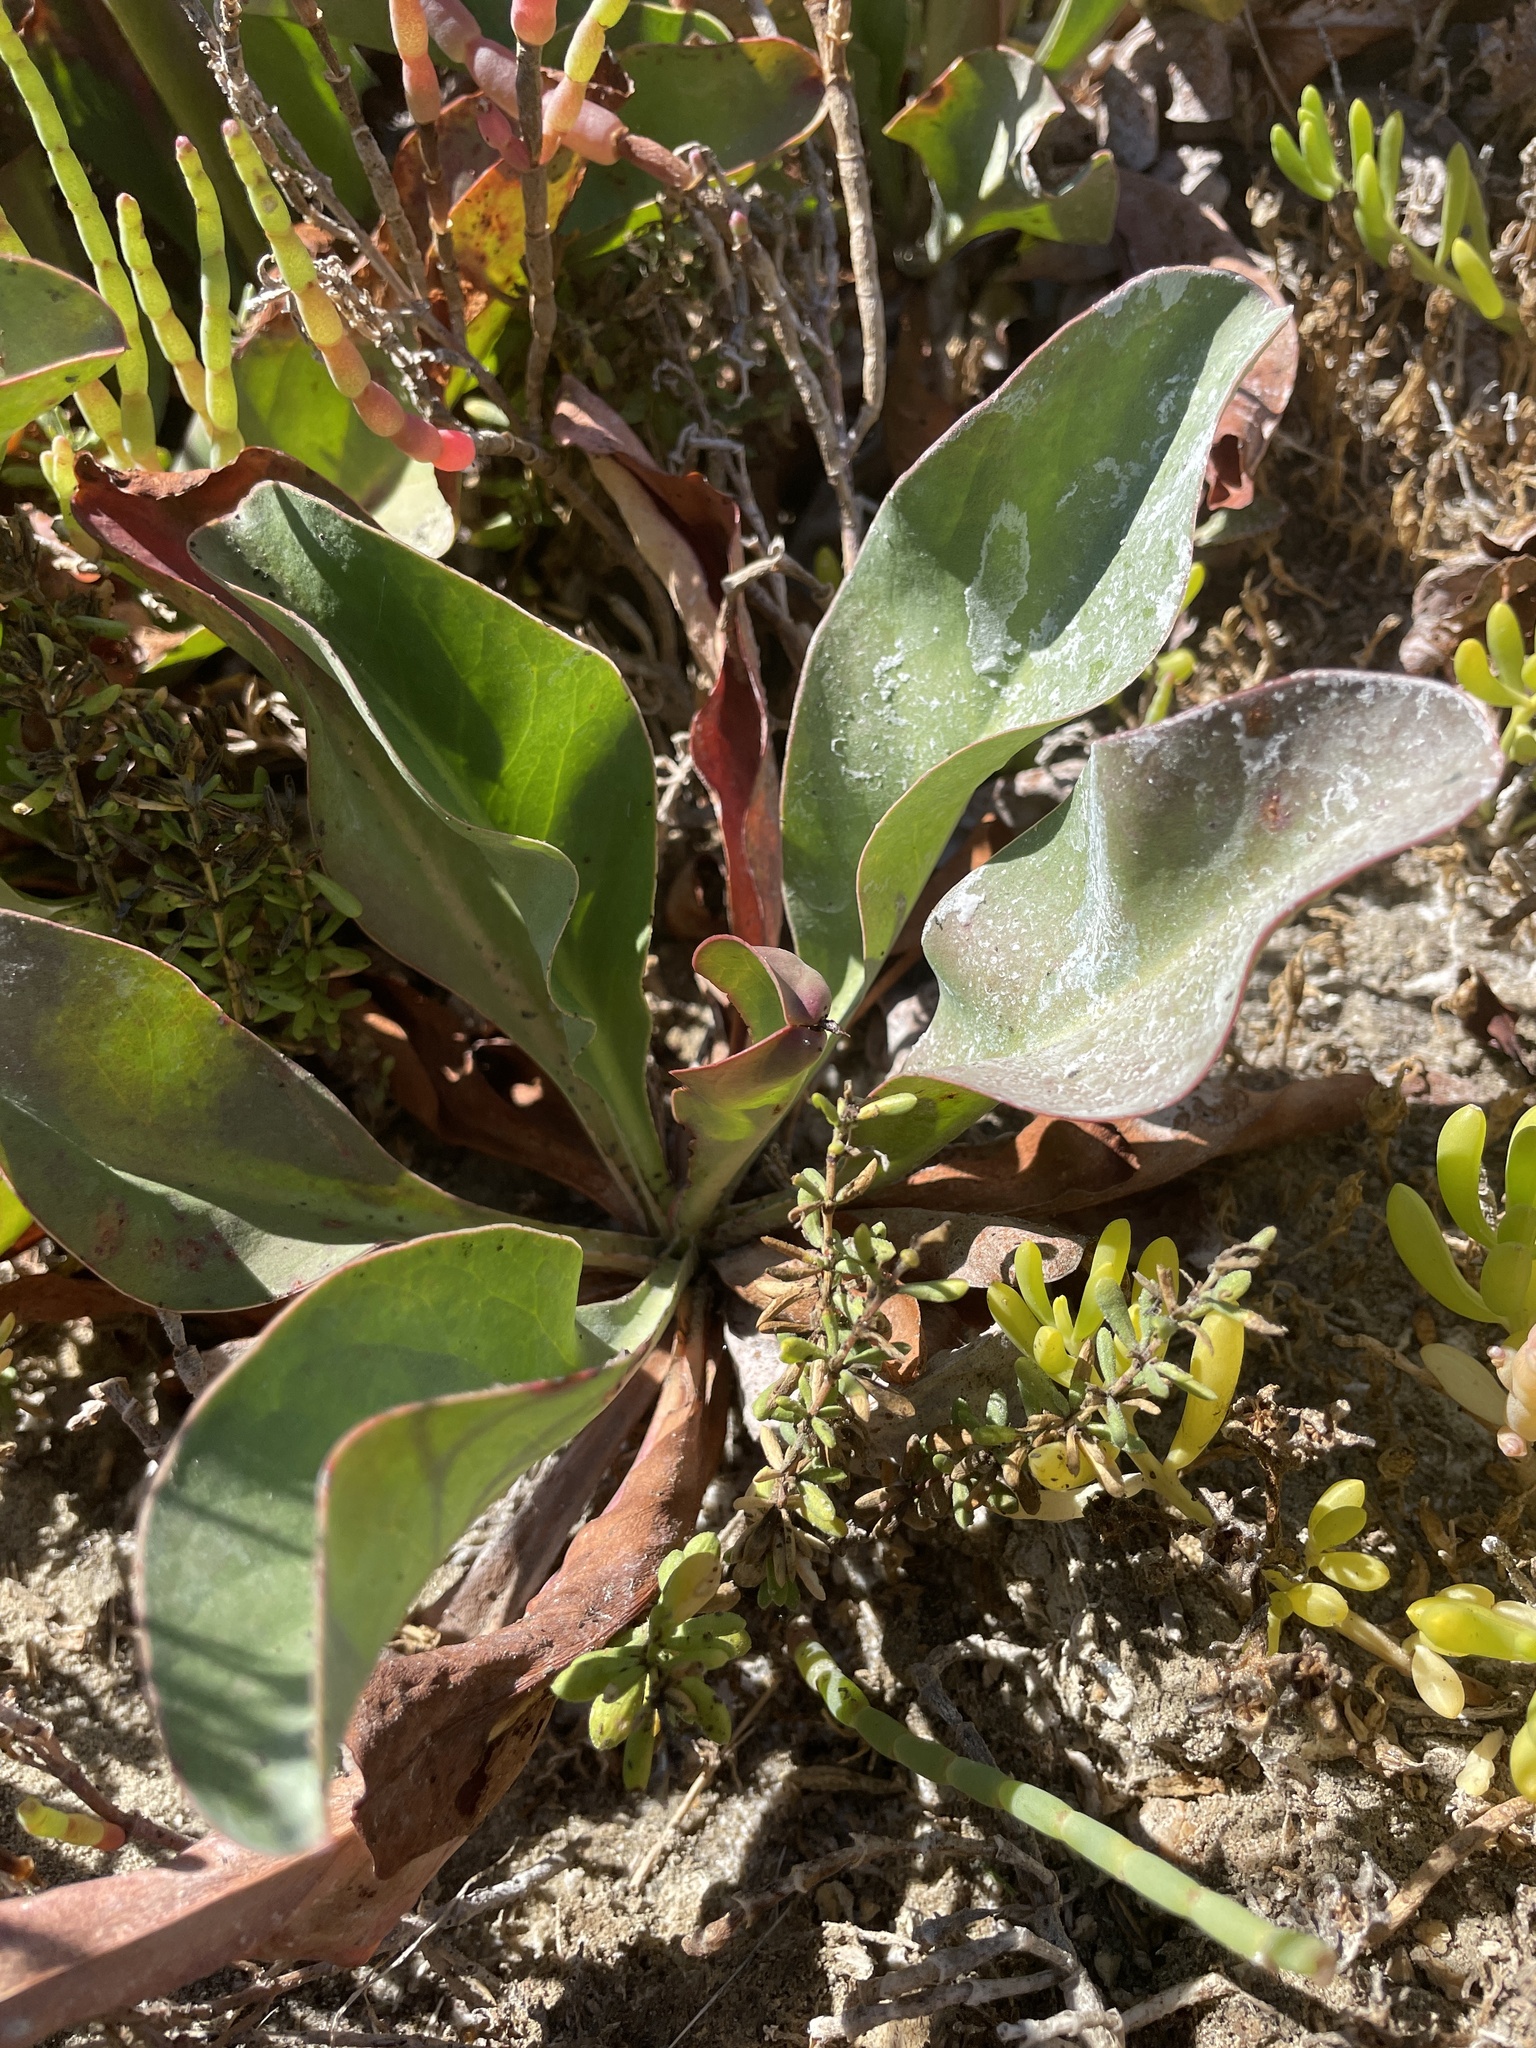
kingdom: Plantae
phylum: Tracheophyta
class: Magnoliopsida
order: Caryophyllales
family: Plumbaginaceae
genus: Limonium
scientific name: Limonium californicum
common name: Marsh-rosemary
